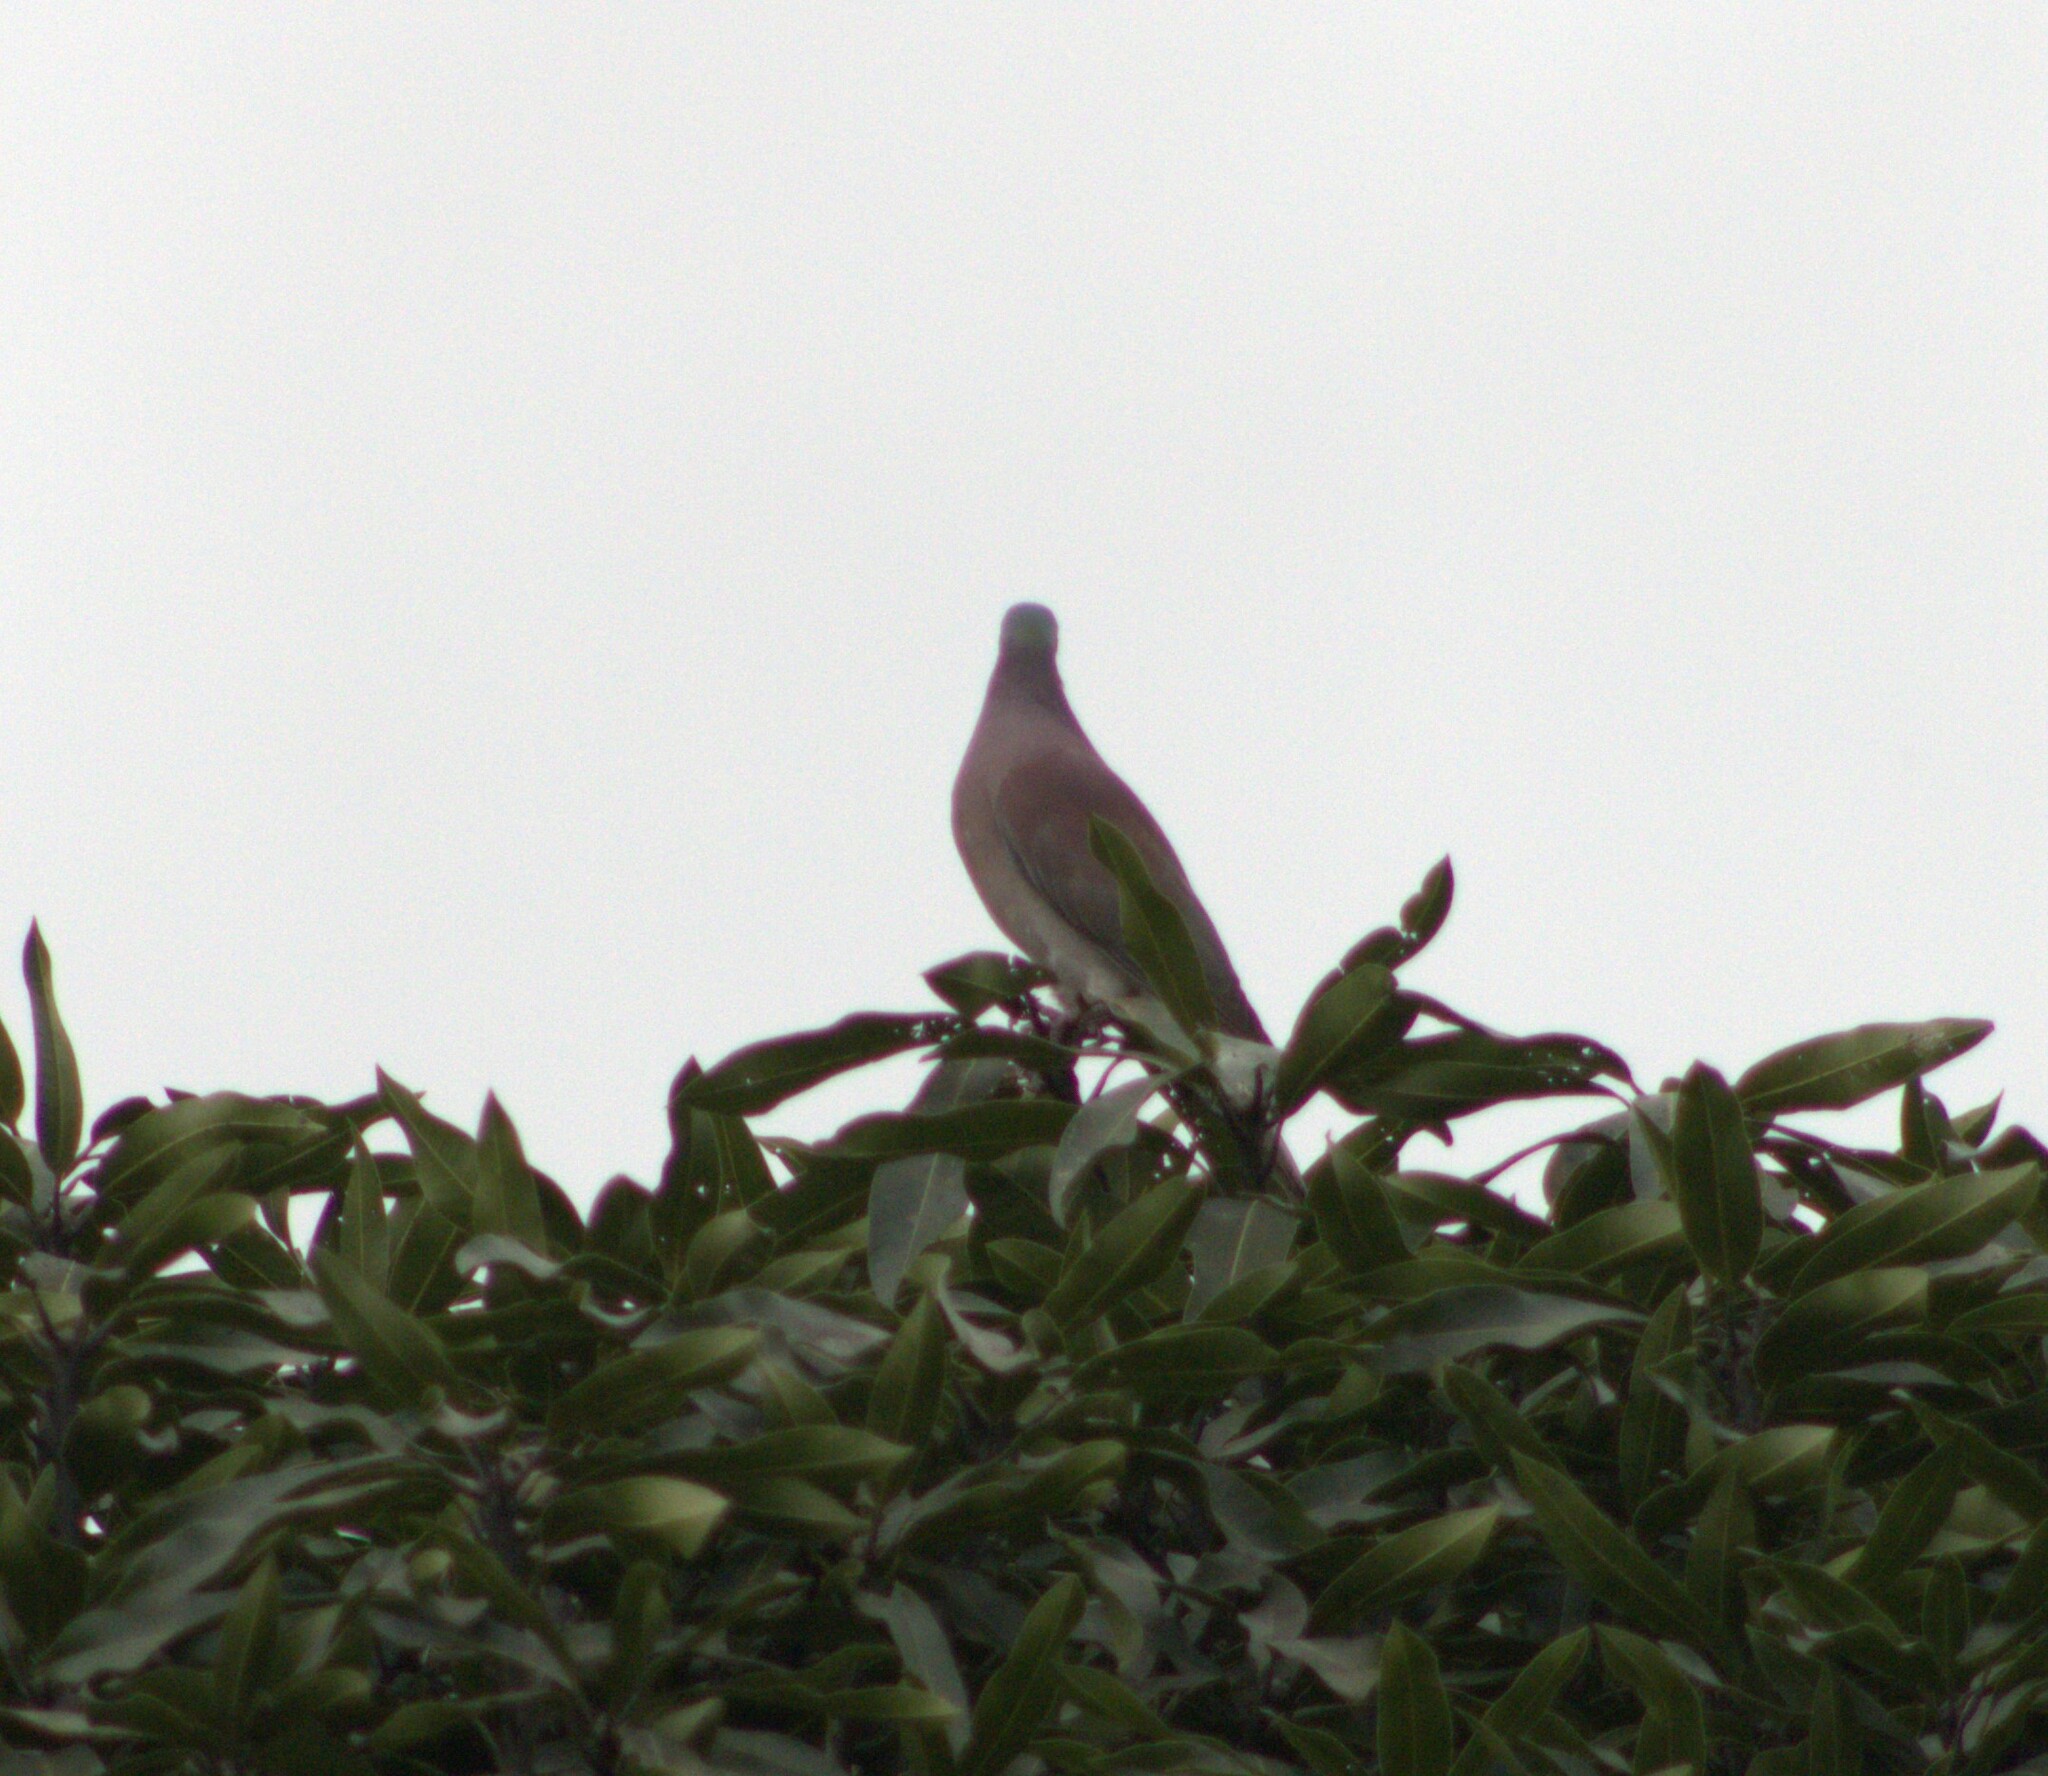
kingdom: Animalia
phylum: Chordata
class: Aves
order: Columbiformes
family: Columbidae
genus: Patagioenas
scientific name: Patagioenas cayennensis
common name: Pale-vented pigeon
